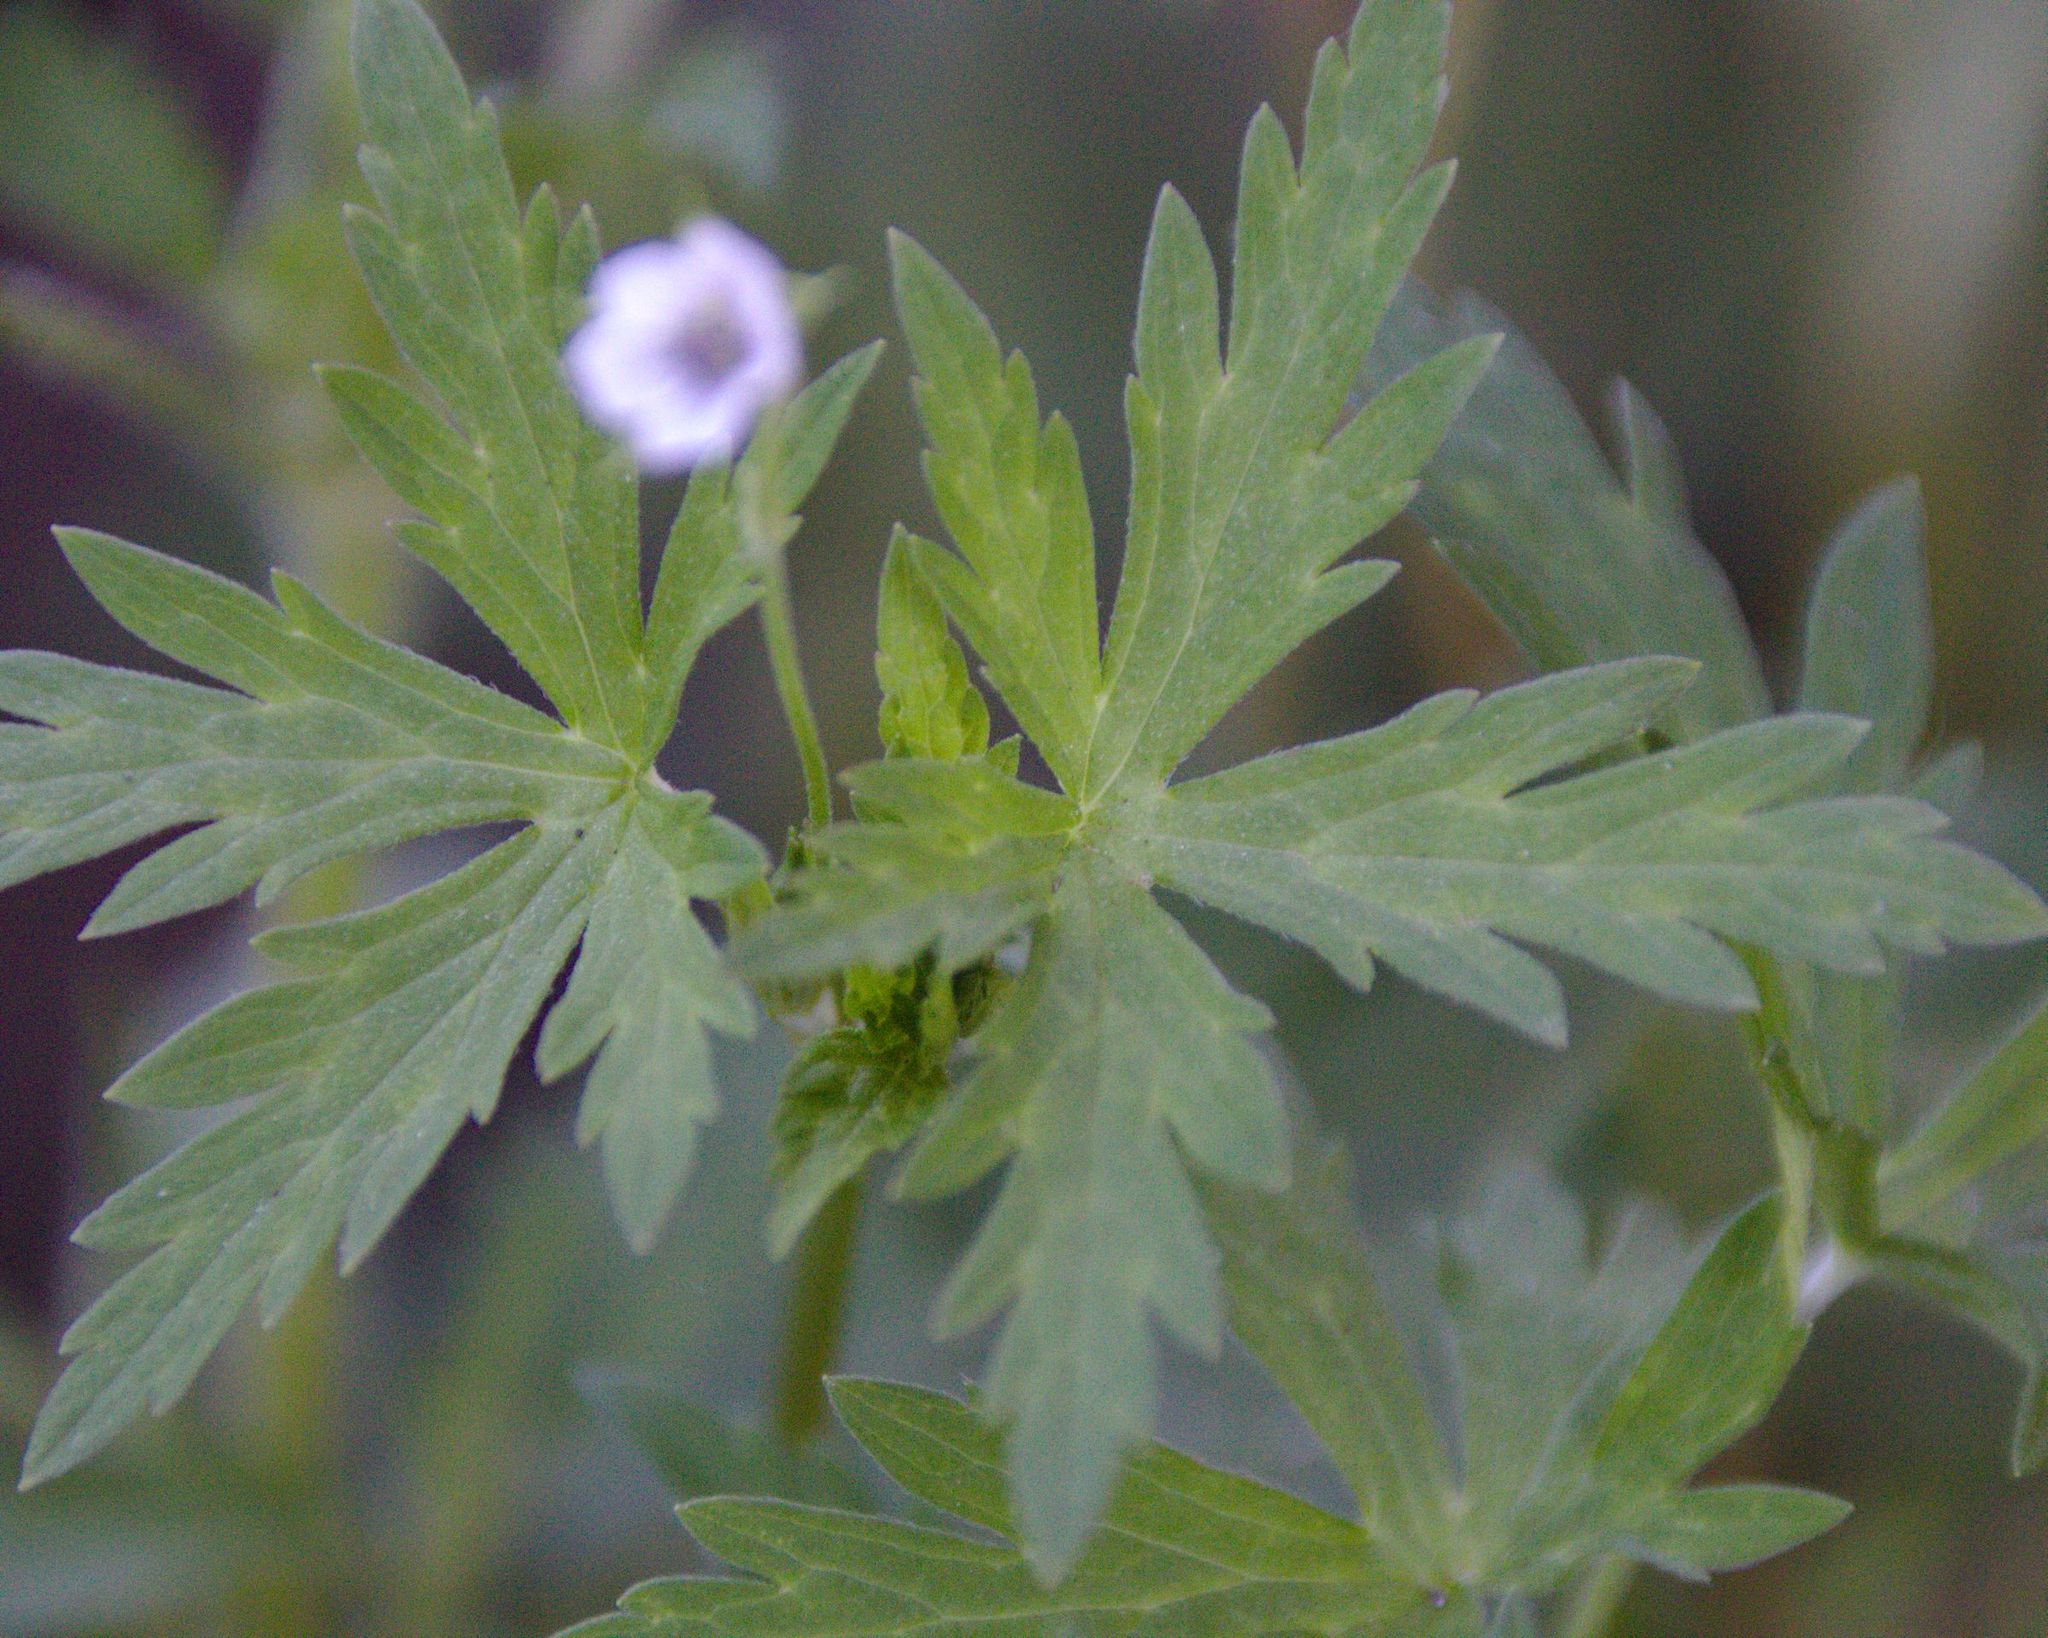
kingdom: Plantae
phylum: Tracheophyta
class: Magnoliopsida
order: Geraniales
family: Geraniaceae
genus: Geranium
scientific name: Geranium sibiricum
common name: Siberian crane's-bill
